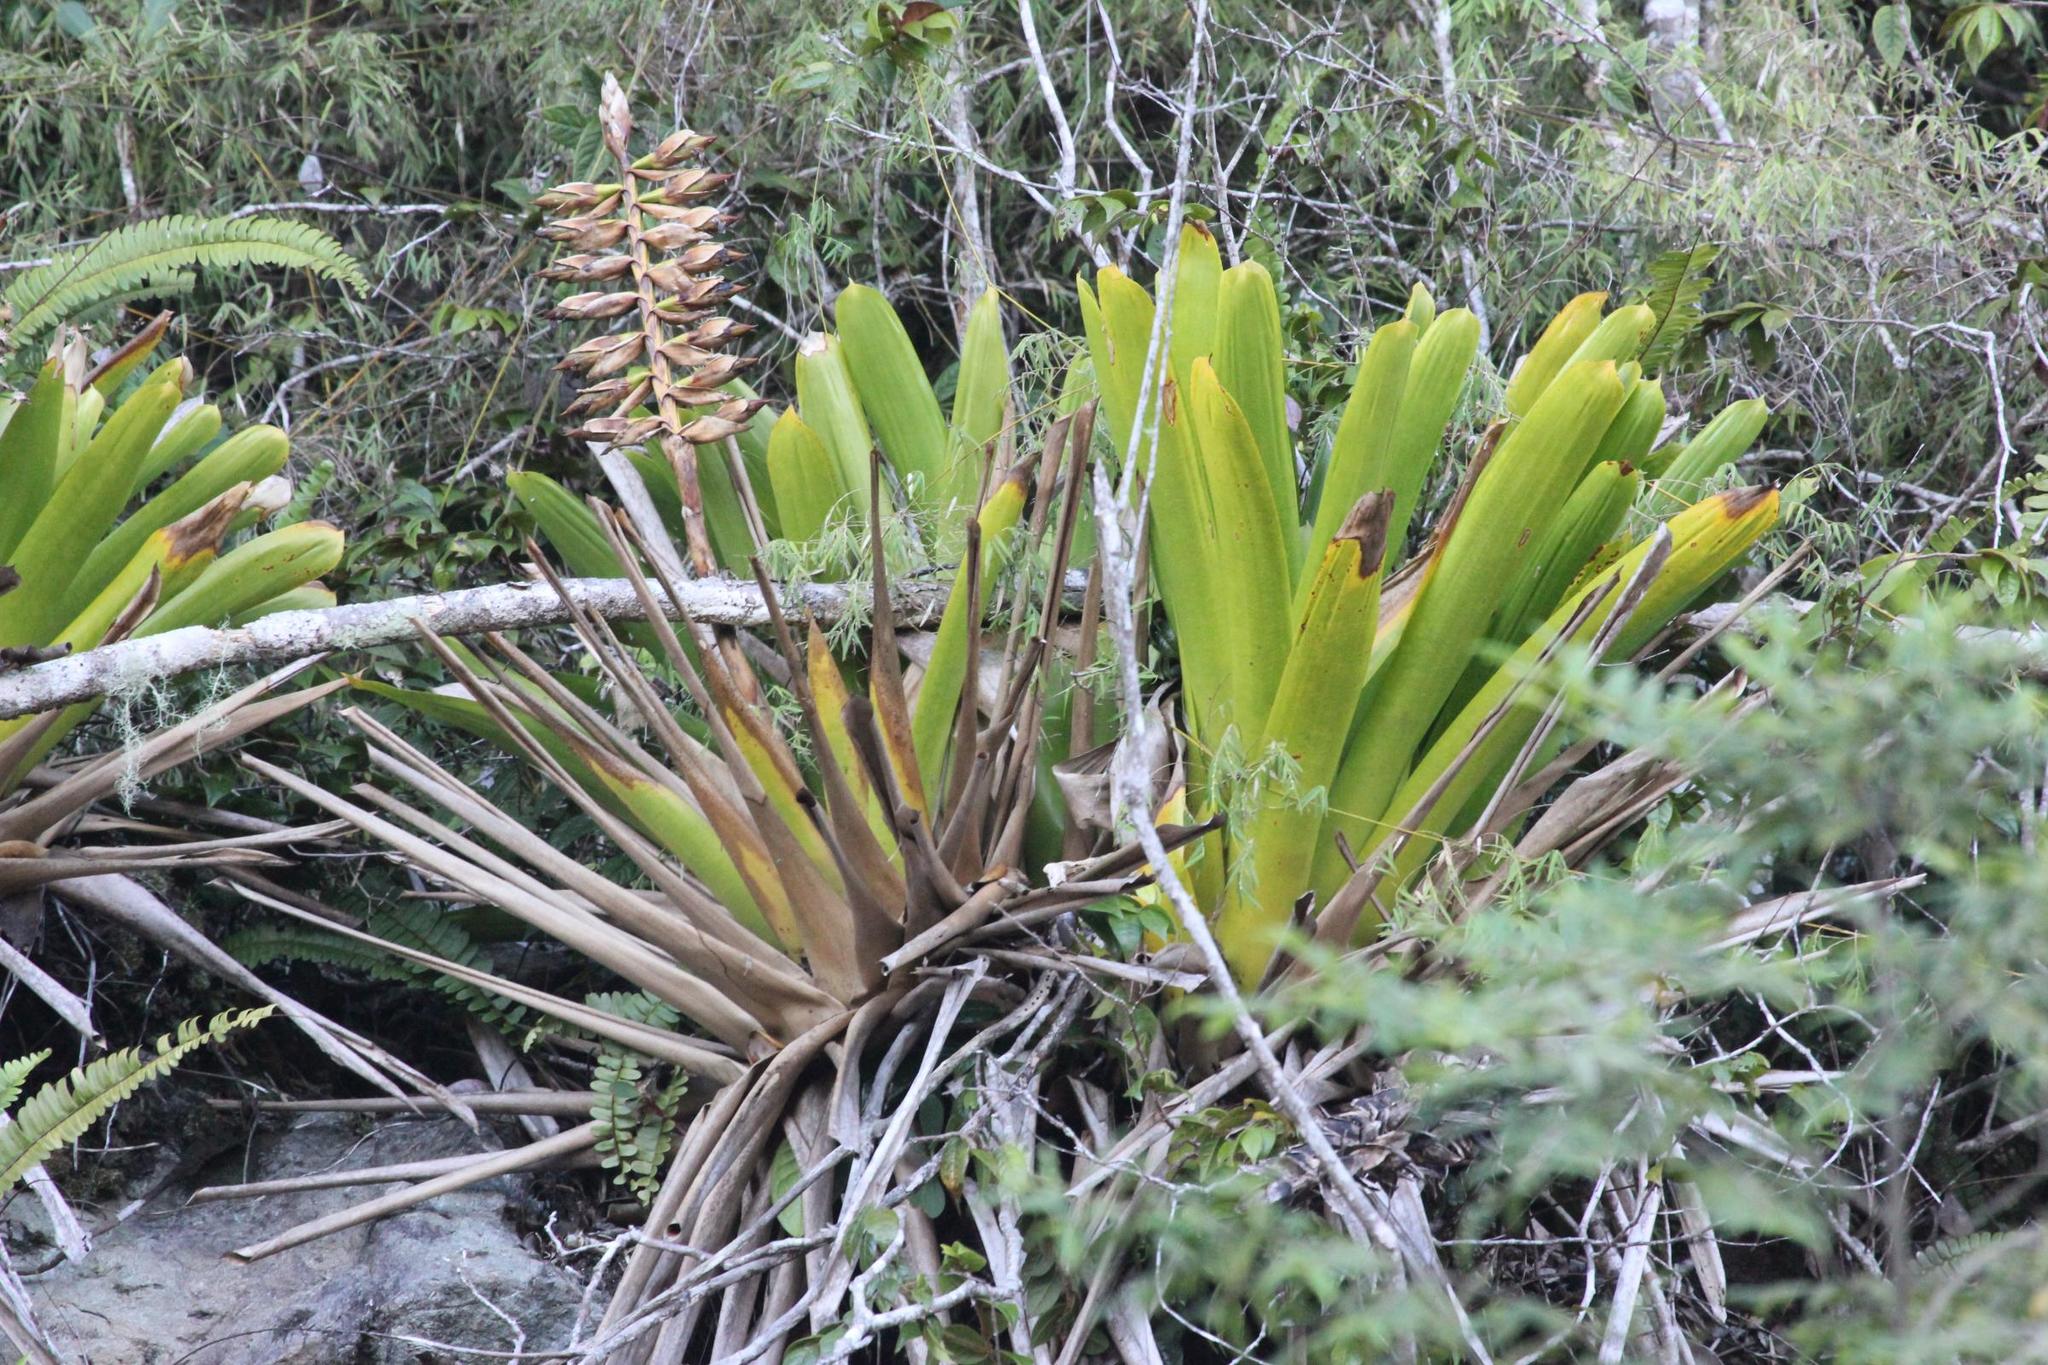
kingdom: Plantae
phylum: Tracheophyta
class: Liliopsida
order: Poales
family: Bromeliaceae
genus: Vriesea
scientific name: Vriesea macrostachya
